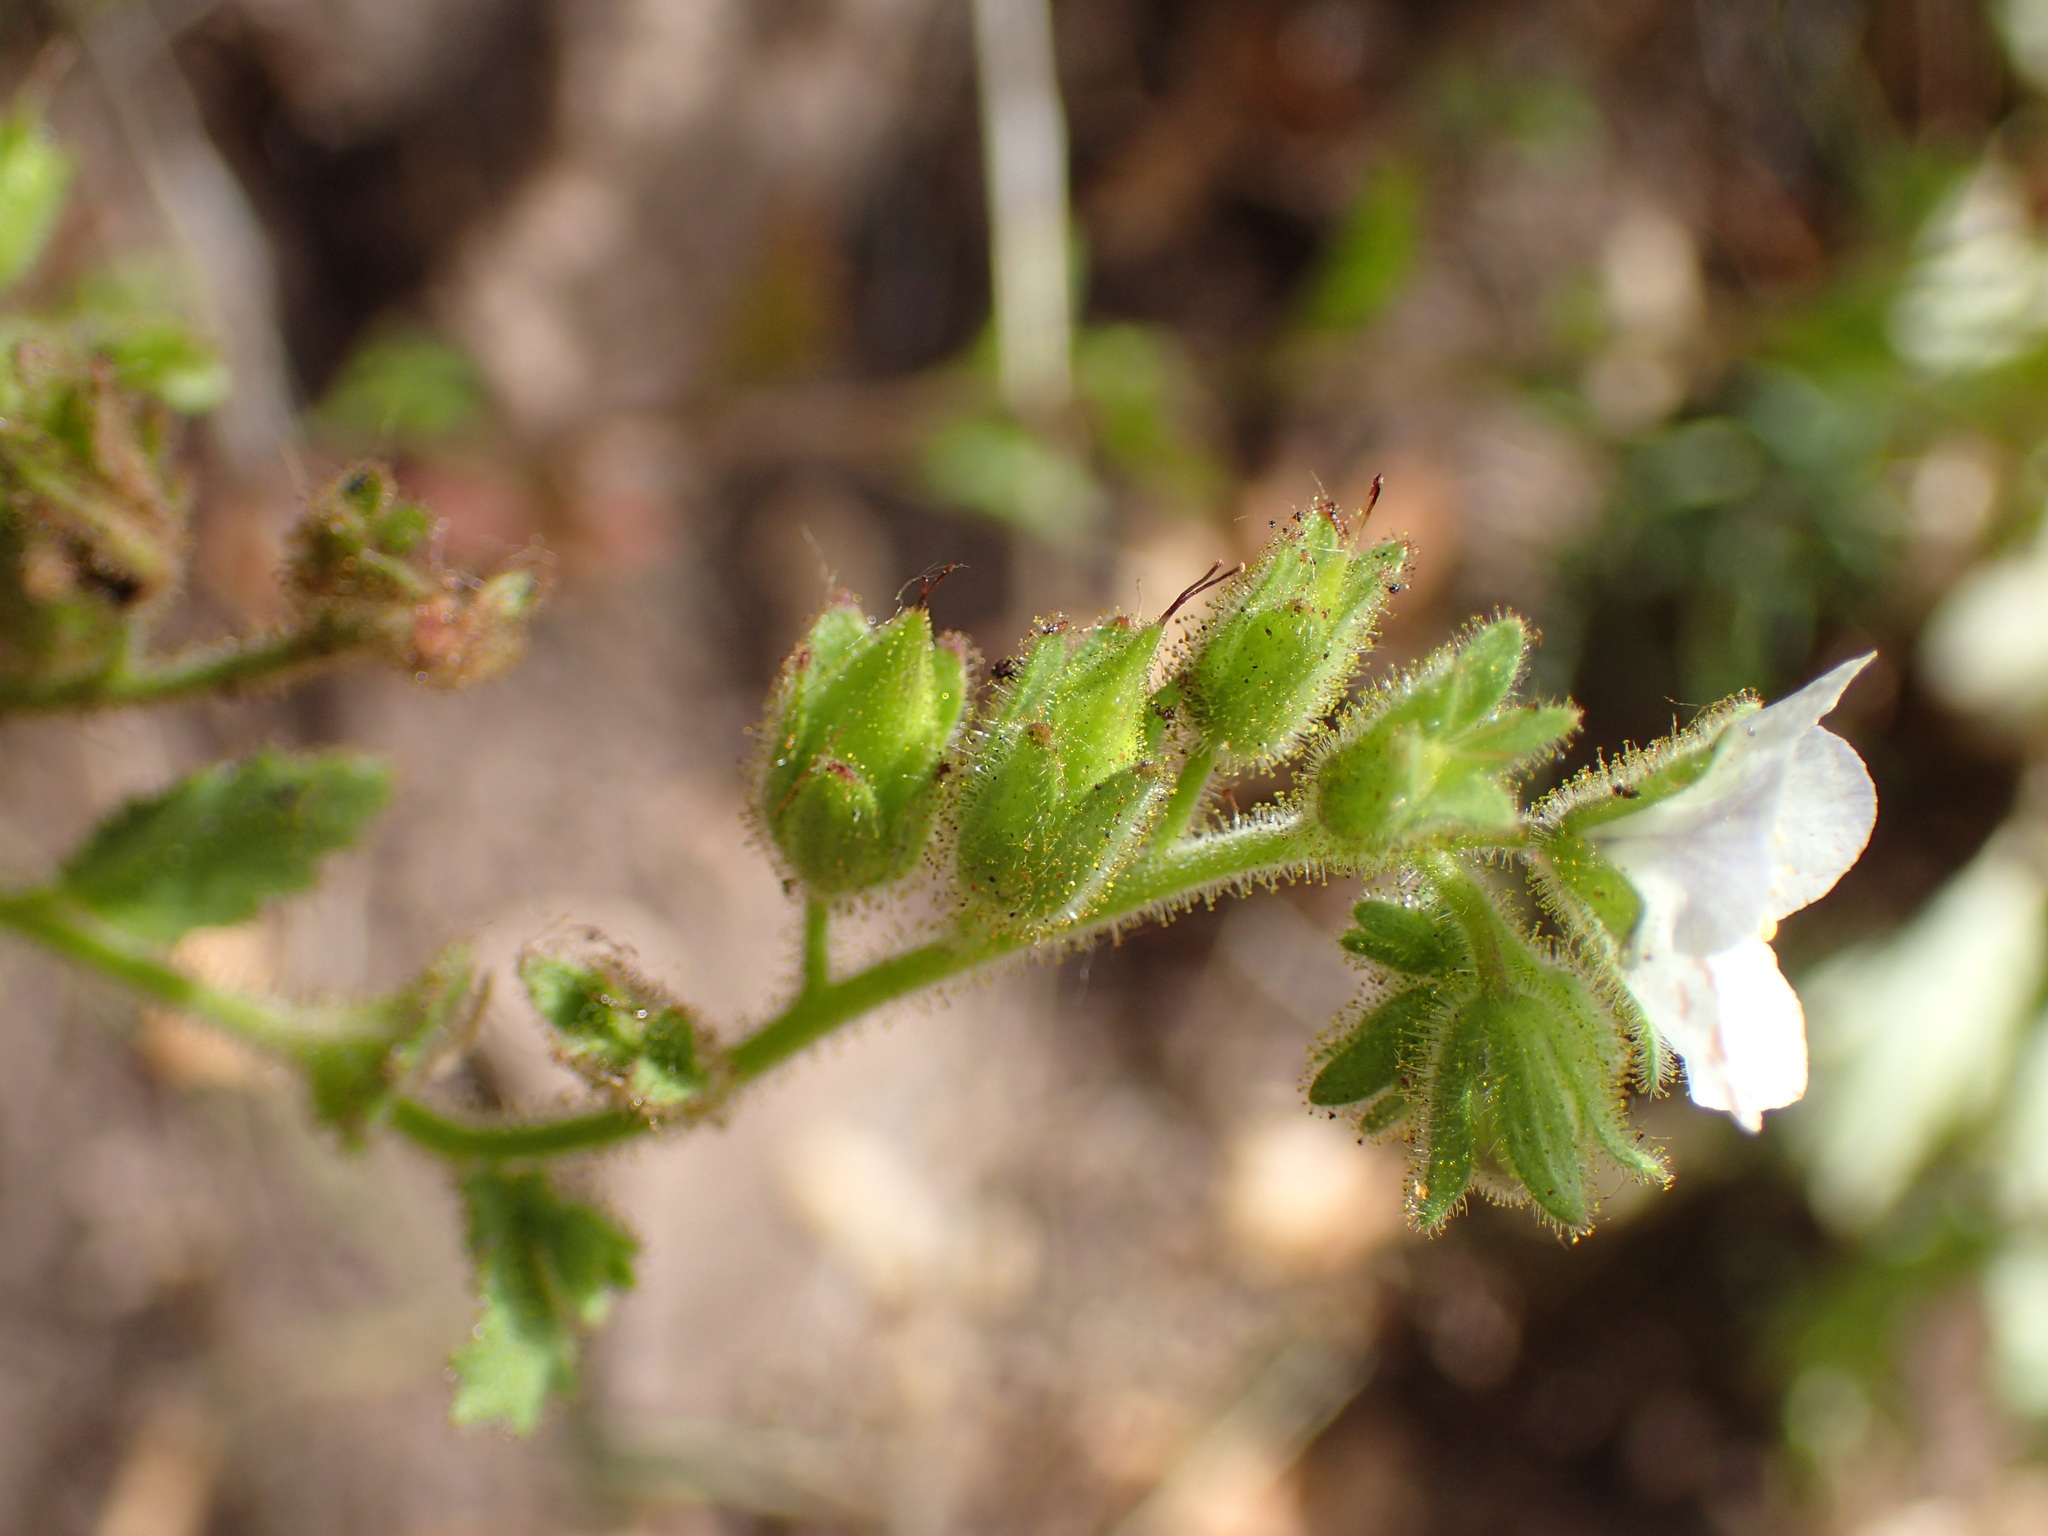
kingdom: Plantae
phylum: Tracheophyta
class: Magnoliopsida
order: Boraginales
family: Hydrophyllaceae
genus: Phacelia
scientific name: Phacelia viscida
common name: Sticky phacelia
